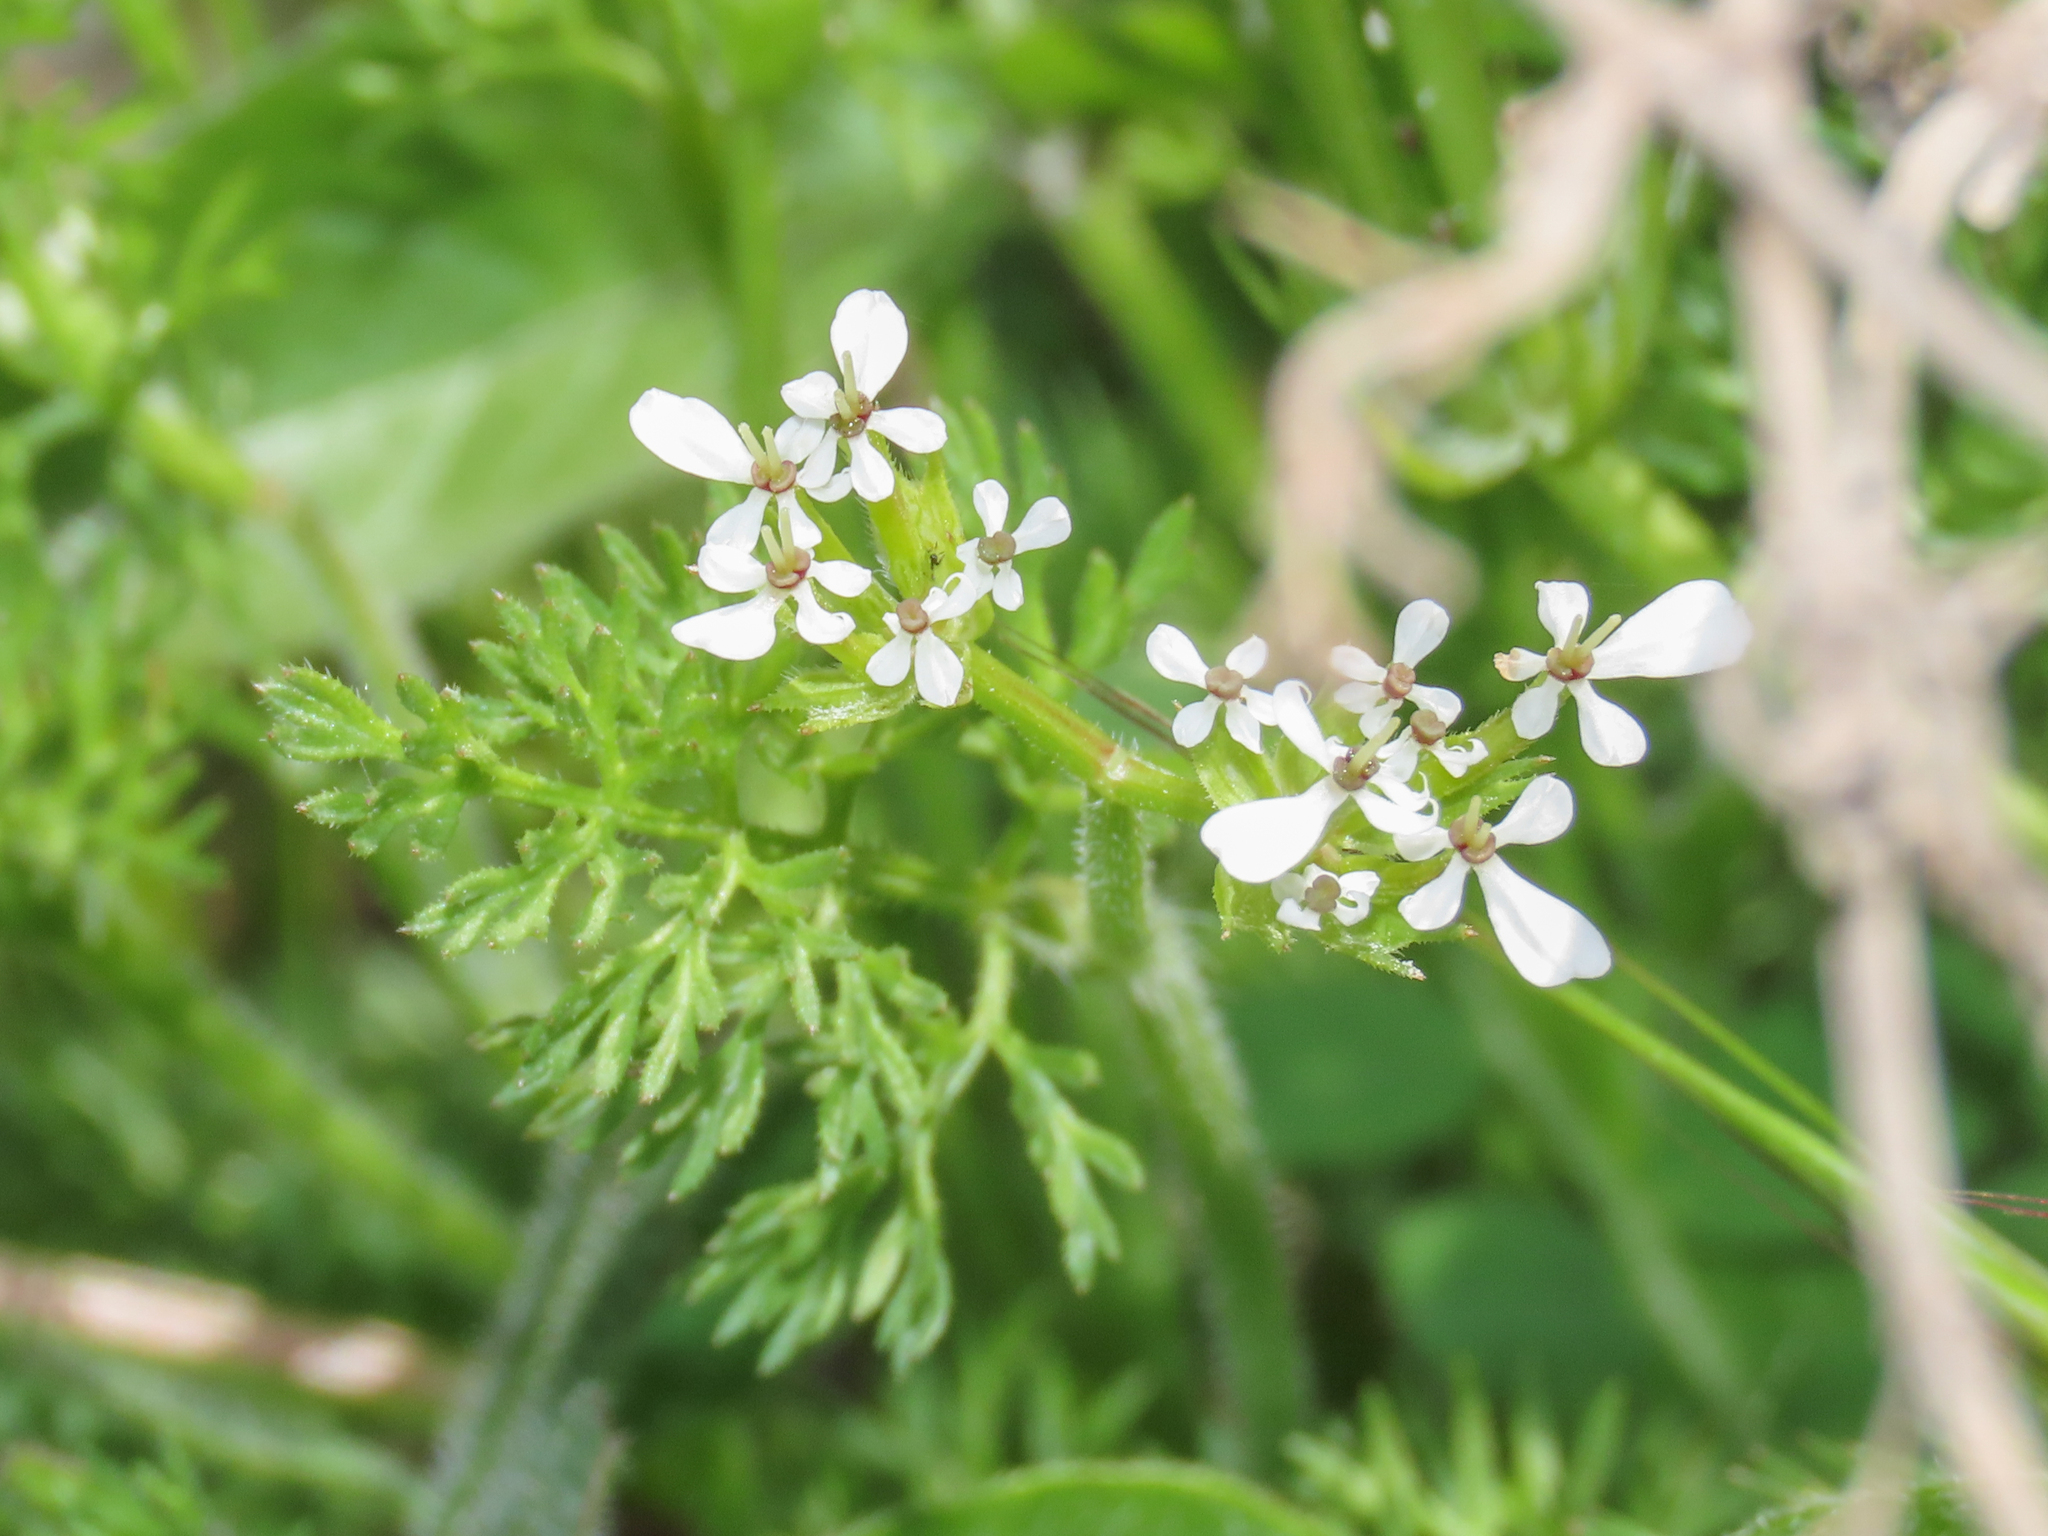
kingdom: Plantae
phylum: Tracheophyta
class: Magnoliopsida
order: Apiales
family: Apiaceae
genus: Scandix
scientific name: Scandix pecten-veneris
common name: Shepherd's-needle
